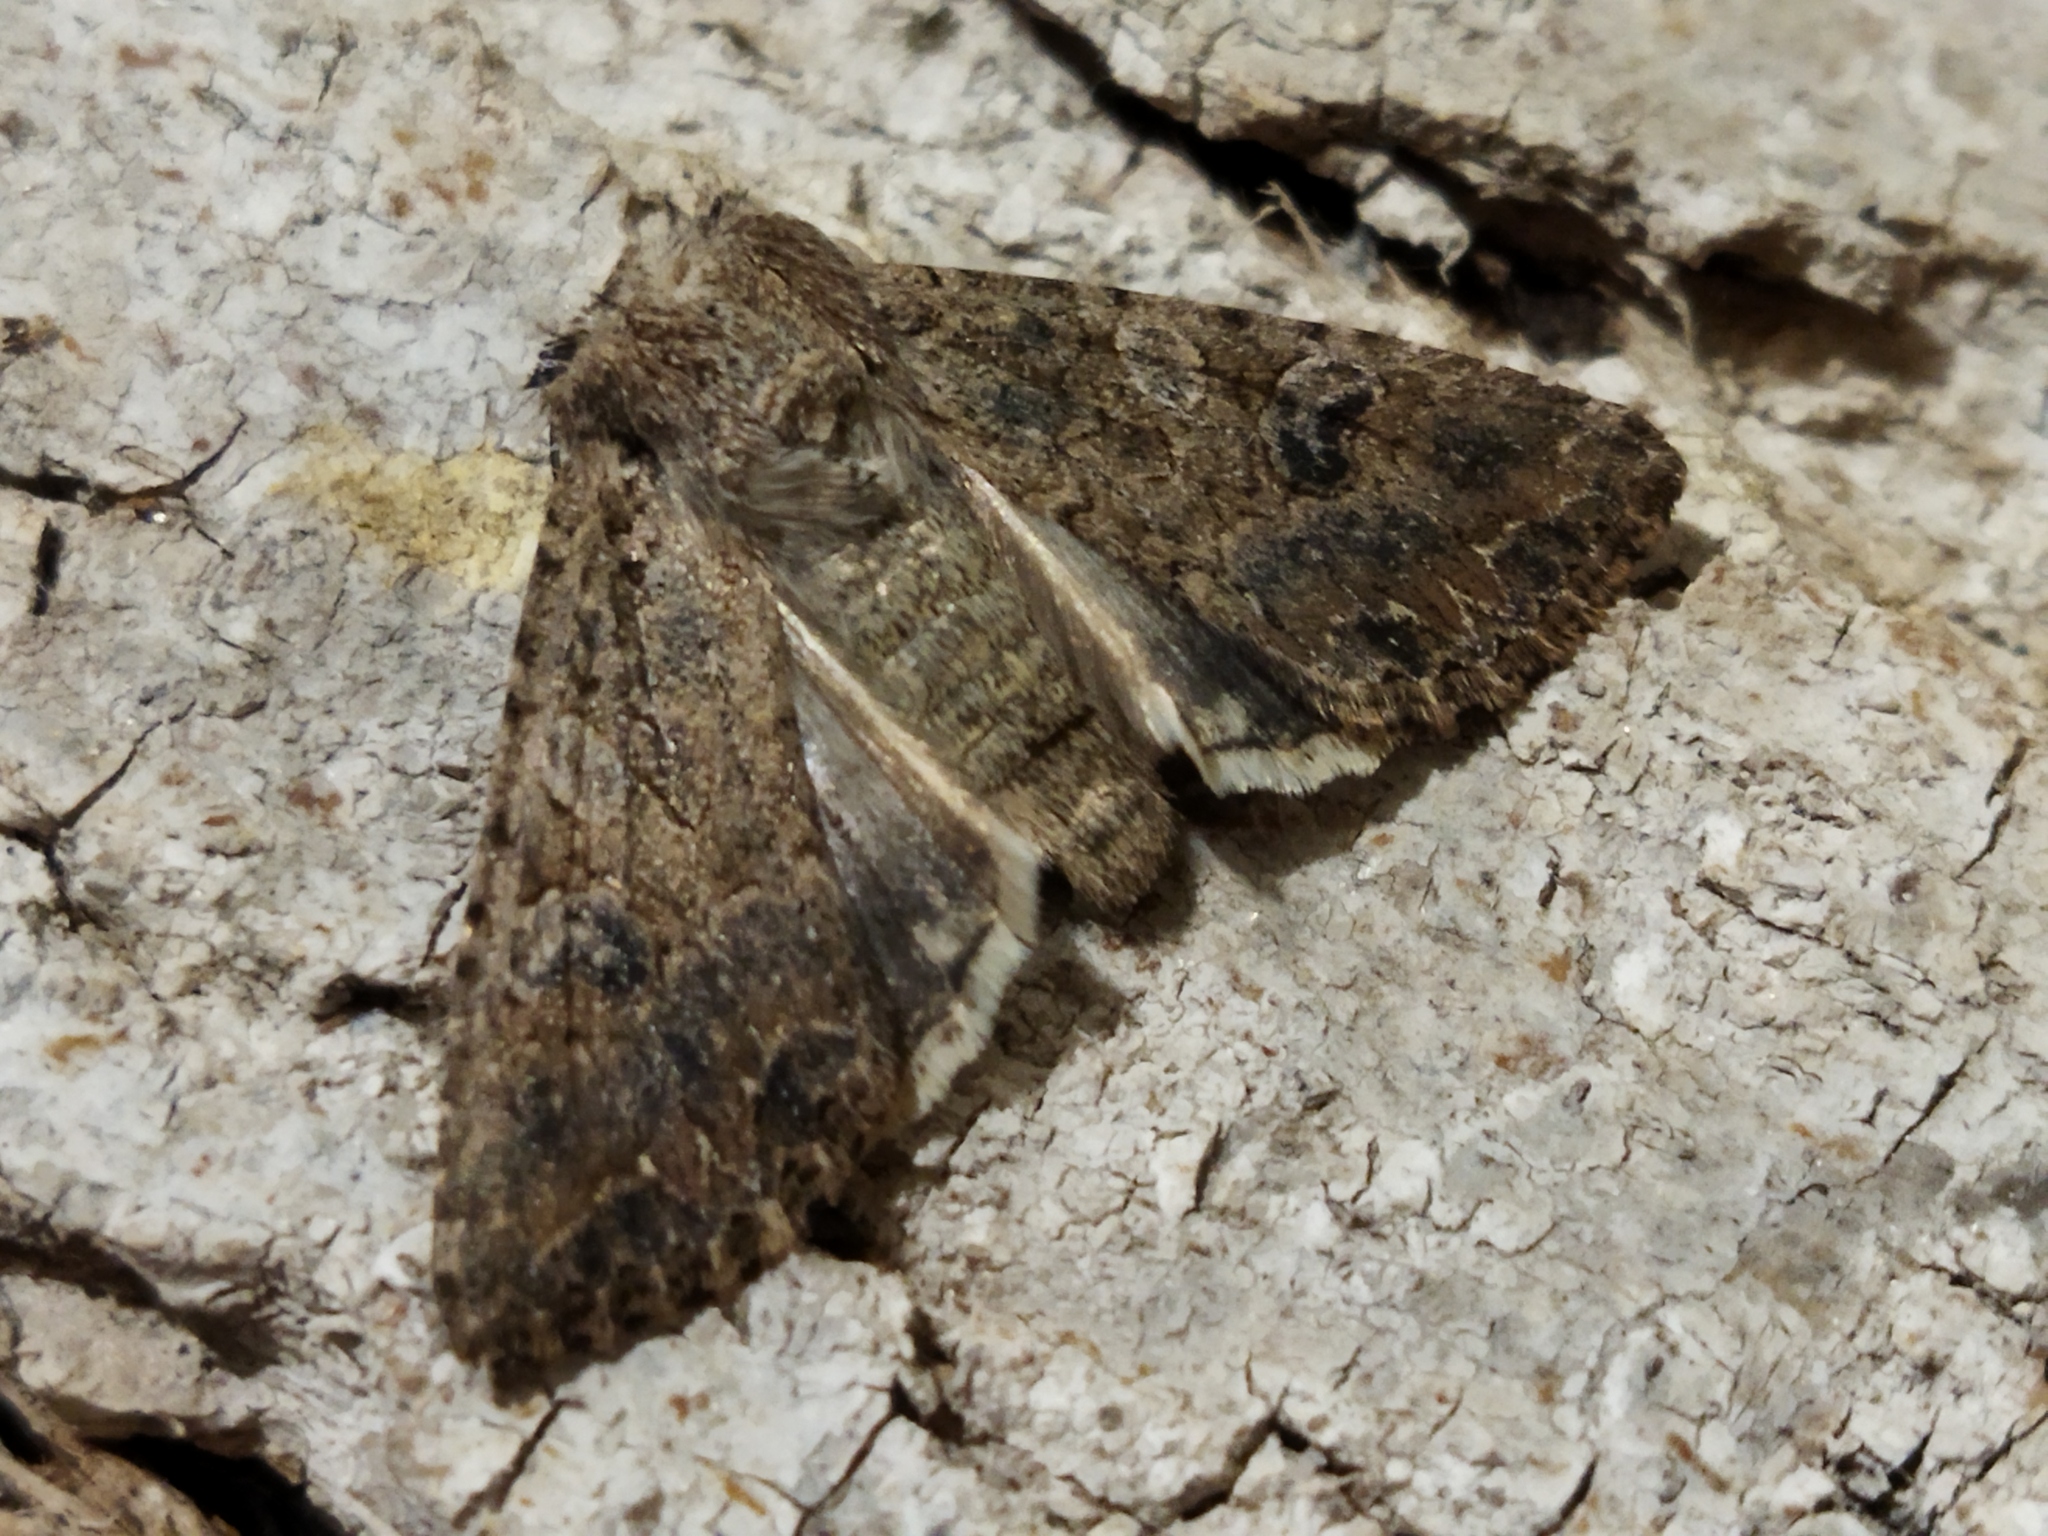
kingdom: Animalia
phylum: Arthropoda
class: Insecta
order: Lepidoptera
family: Noctuidae
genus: Anarta
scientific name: Anarta trifolii
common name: Clover cutworm moth
